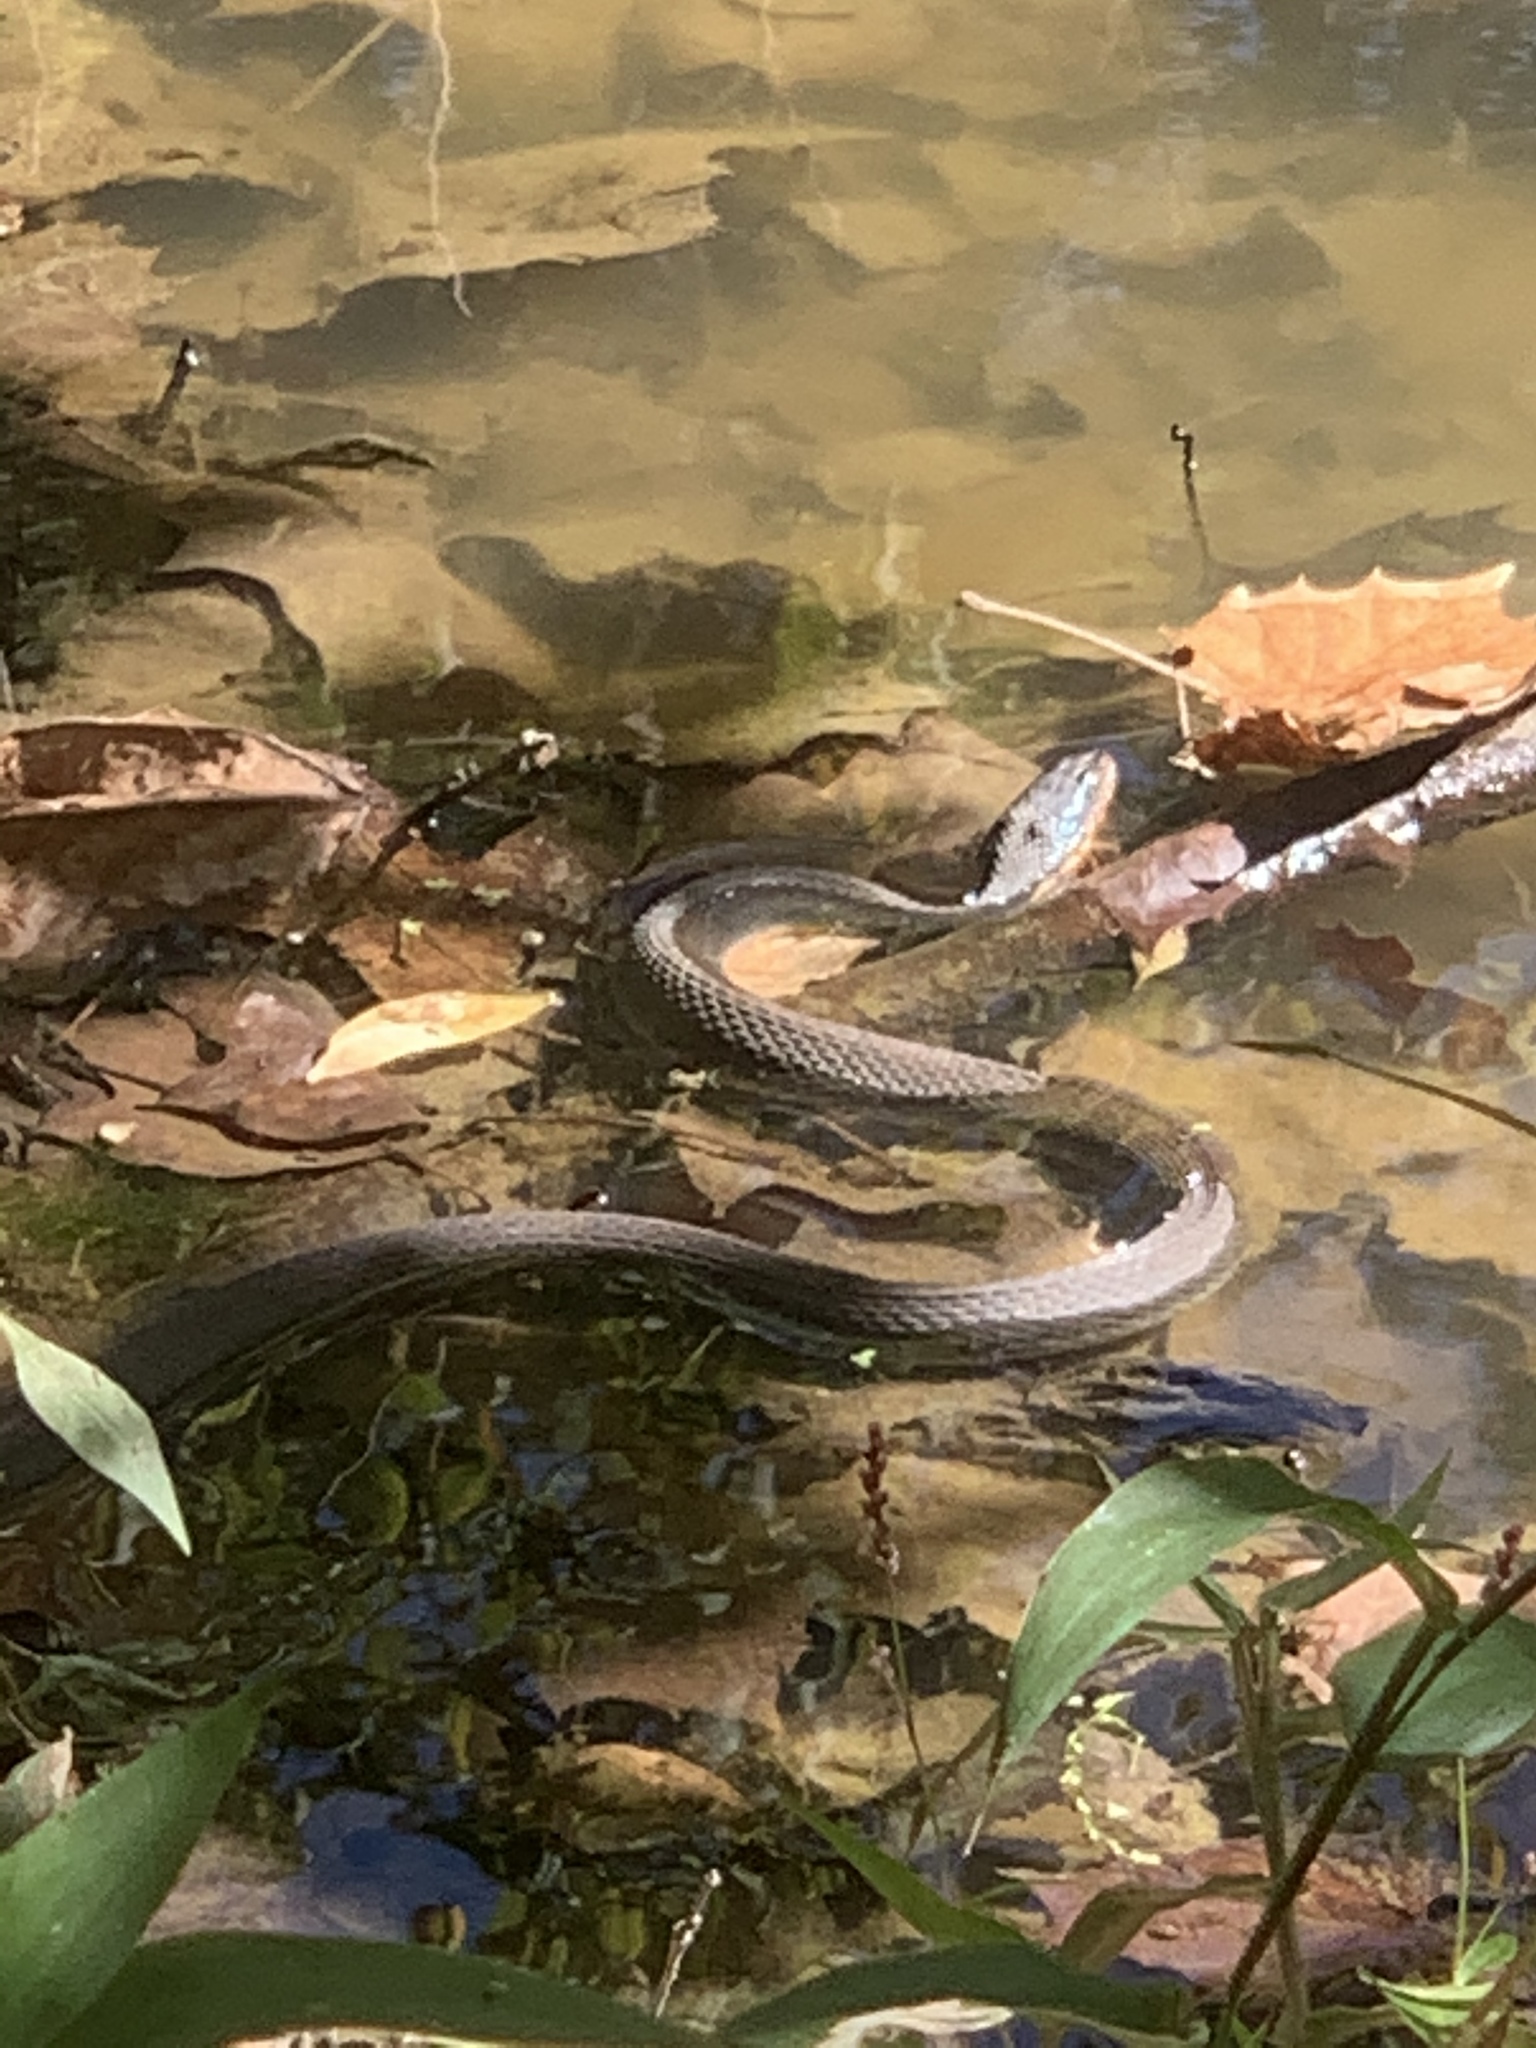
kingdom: Animalia
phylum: Chordata
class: Squamata
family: Colubridae
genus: Nerodia
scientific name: Nerodia sipedon
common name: Northern water snake
